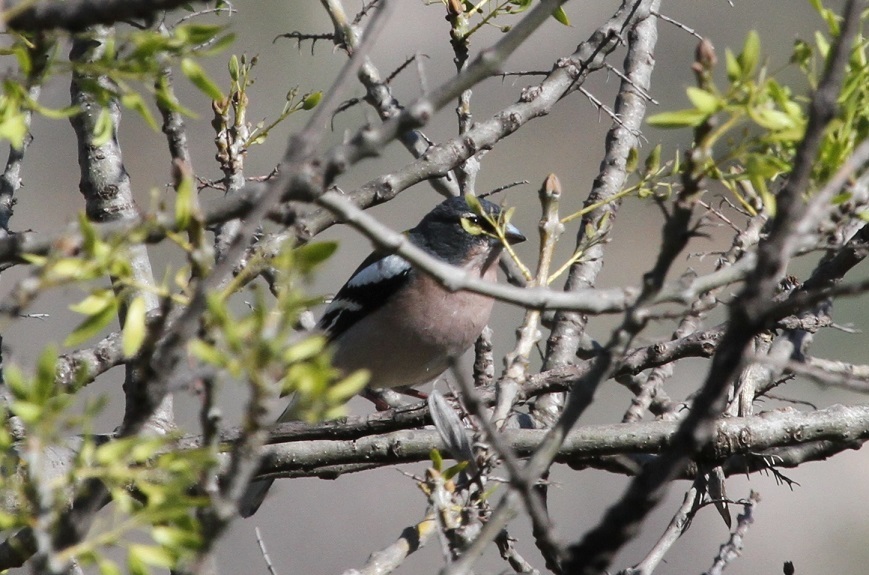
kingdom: Animalia
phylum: Chordata
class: Aves
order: Passeriformes
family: Fringillidae
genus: Fringilla
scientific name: Fringilla spodiogenys
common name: African chaffinch
